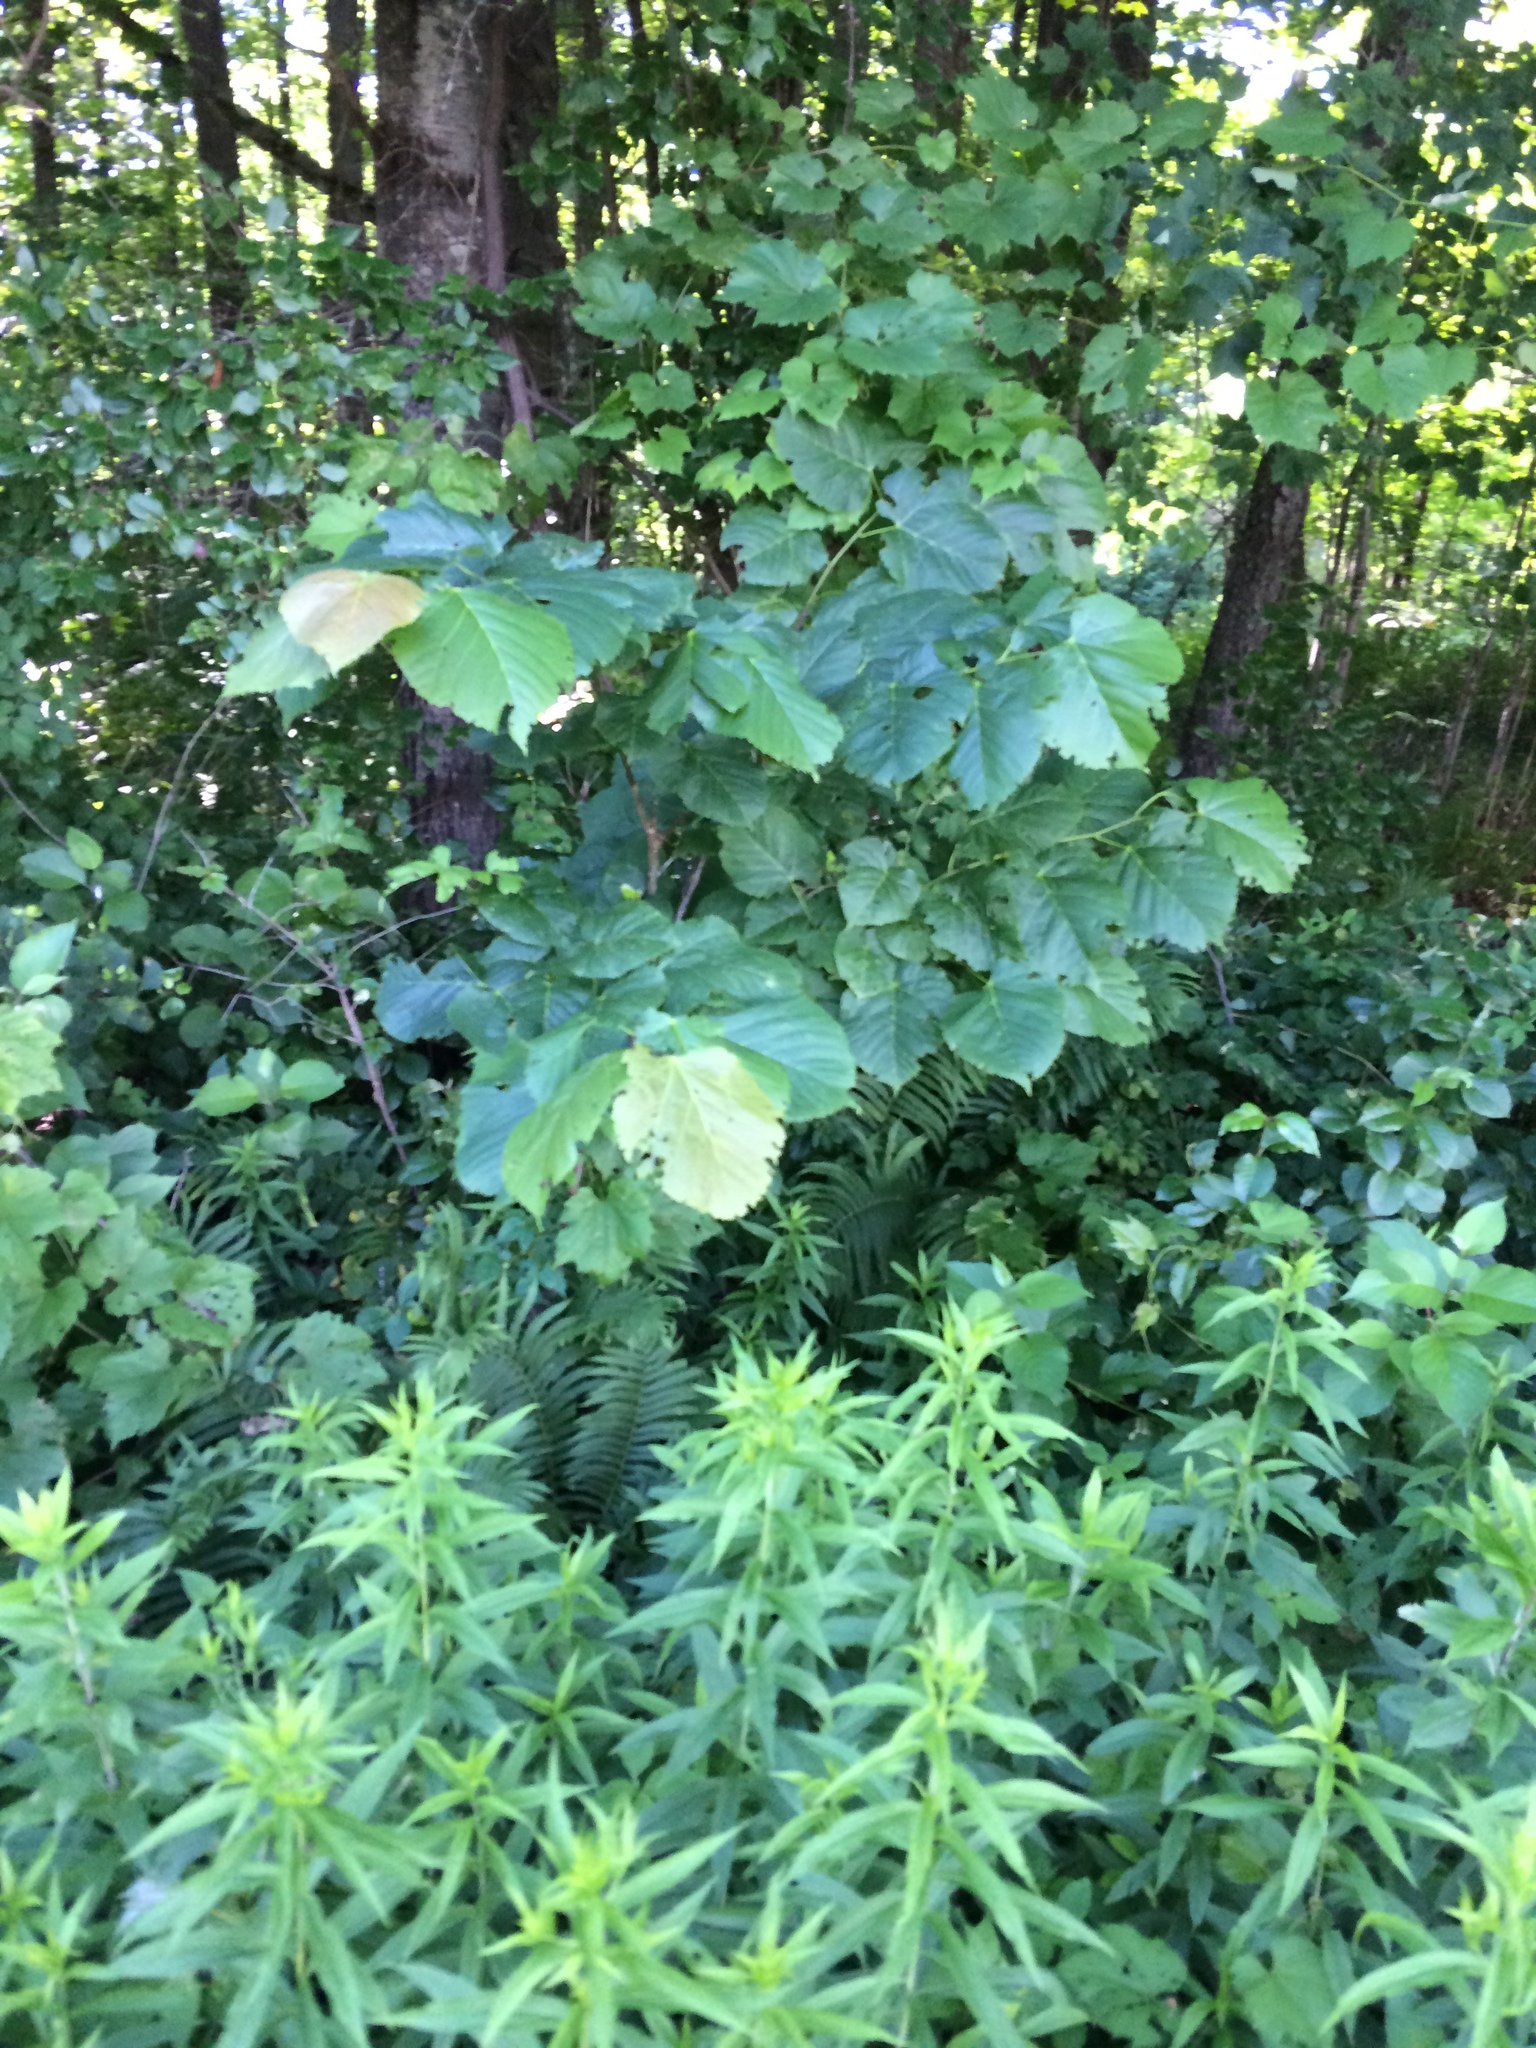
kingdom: Plantae
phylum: Tracheophyta
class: Magnoliopsida
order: Malvales
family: Malvaceae
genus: Tilia
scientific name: Tilia americana
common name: Basswood
